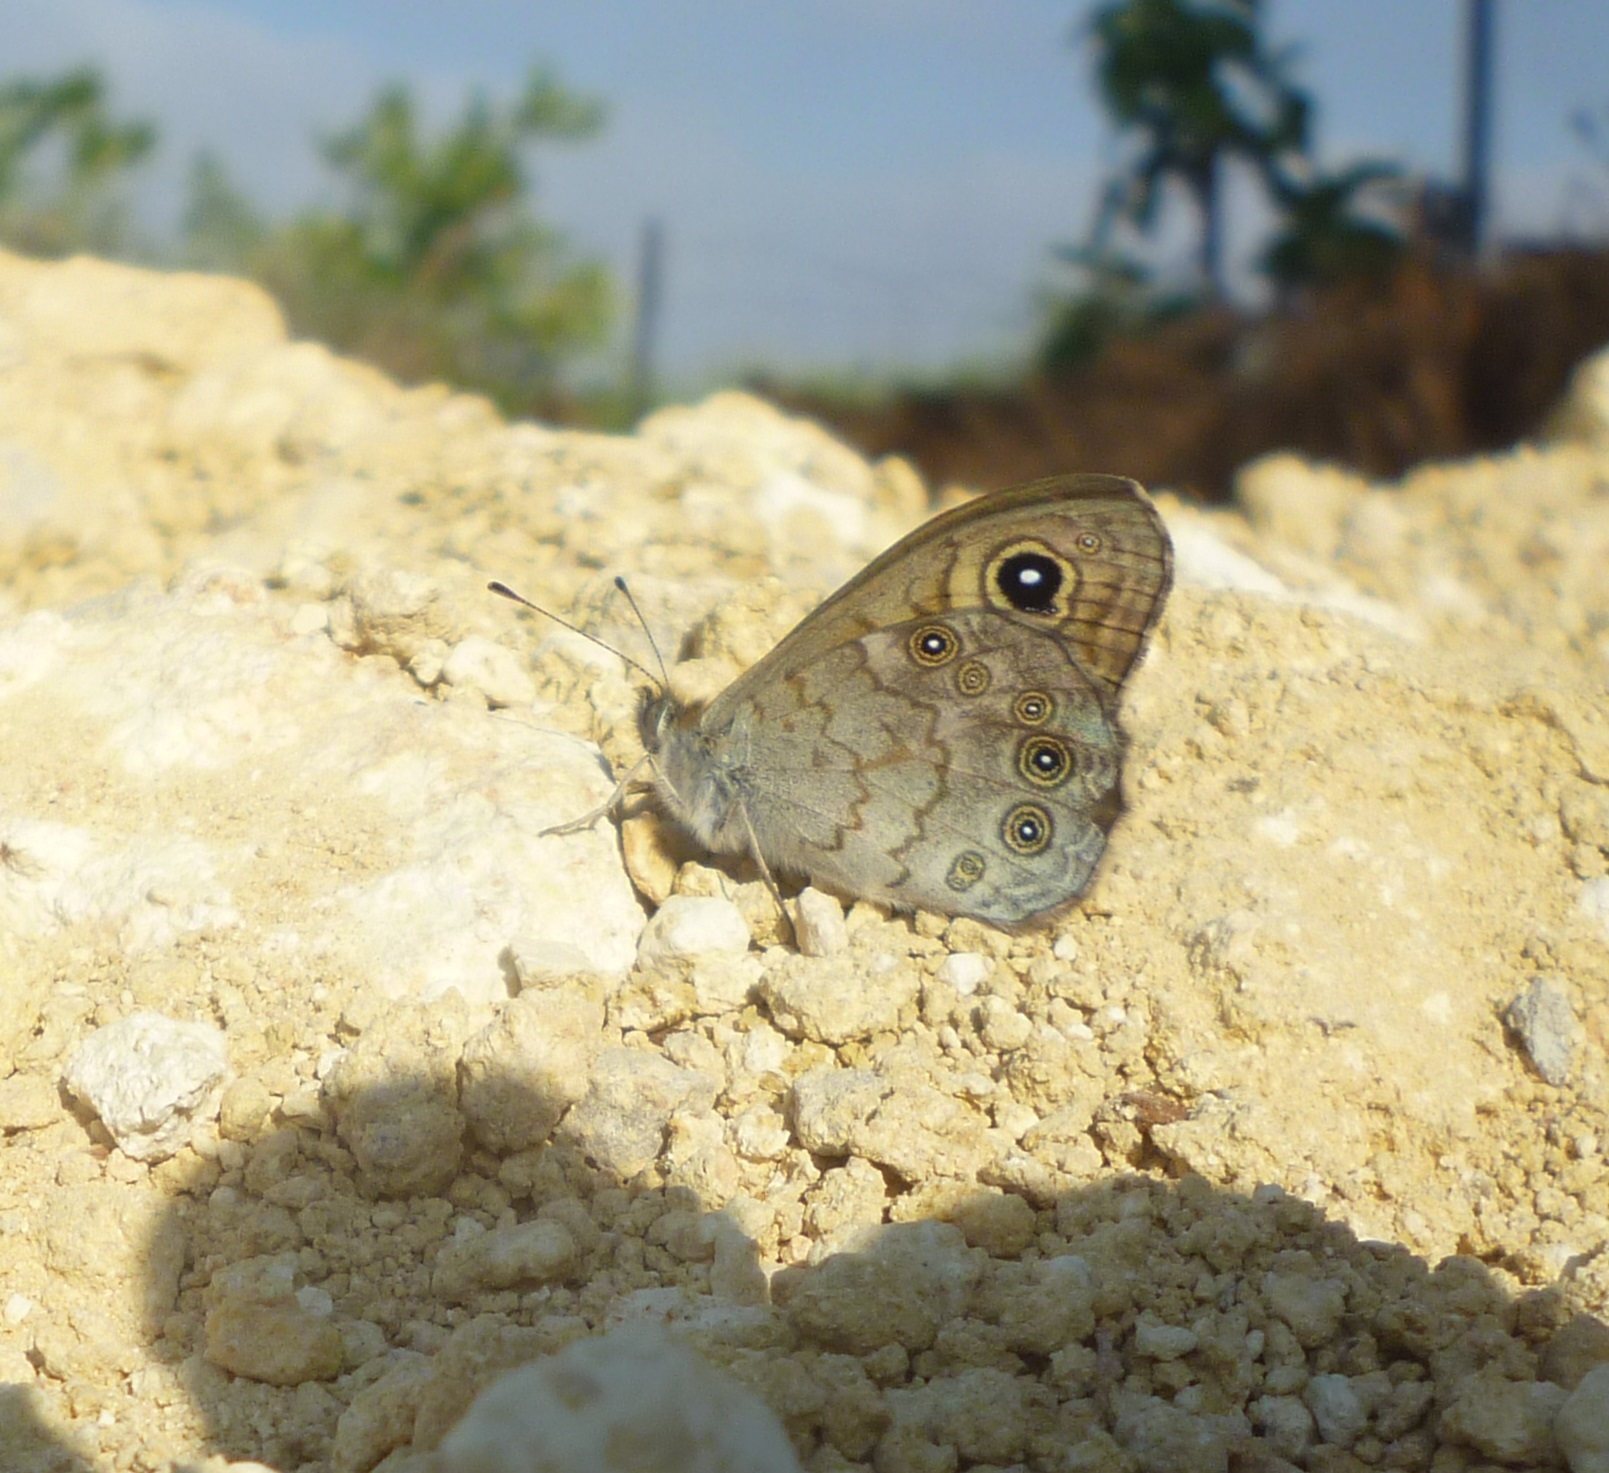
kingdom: Animalia
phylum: Arthropoda
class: Insecta
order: Lepidoptera
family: Nymphalidae
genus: Pararge
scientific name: Pararge Lasiommata maera
